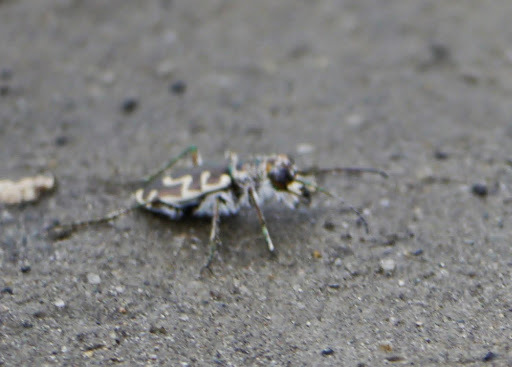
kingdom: Animalia
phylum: Arthropoda
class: Insecta
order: Coleoptera
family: Carabidae
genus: Cicindela
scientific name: Cicindela hirticollis
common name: Hairy-necked tiger beetle
